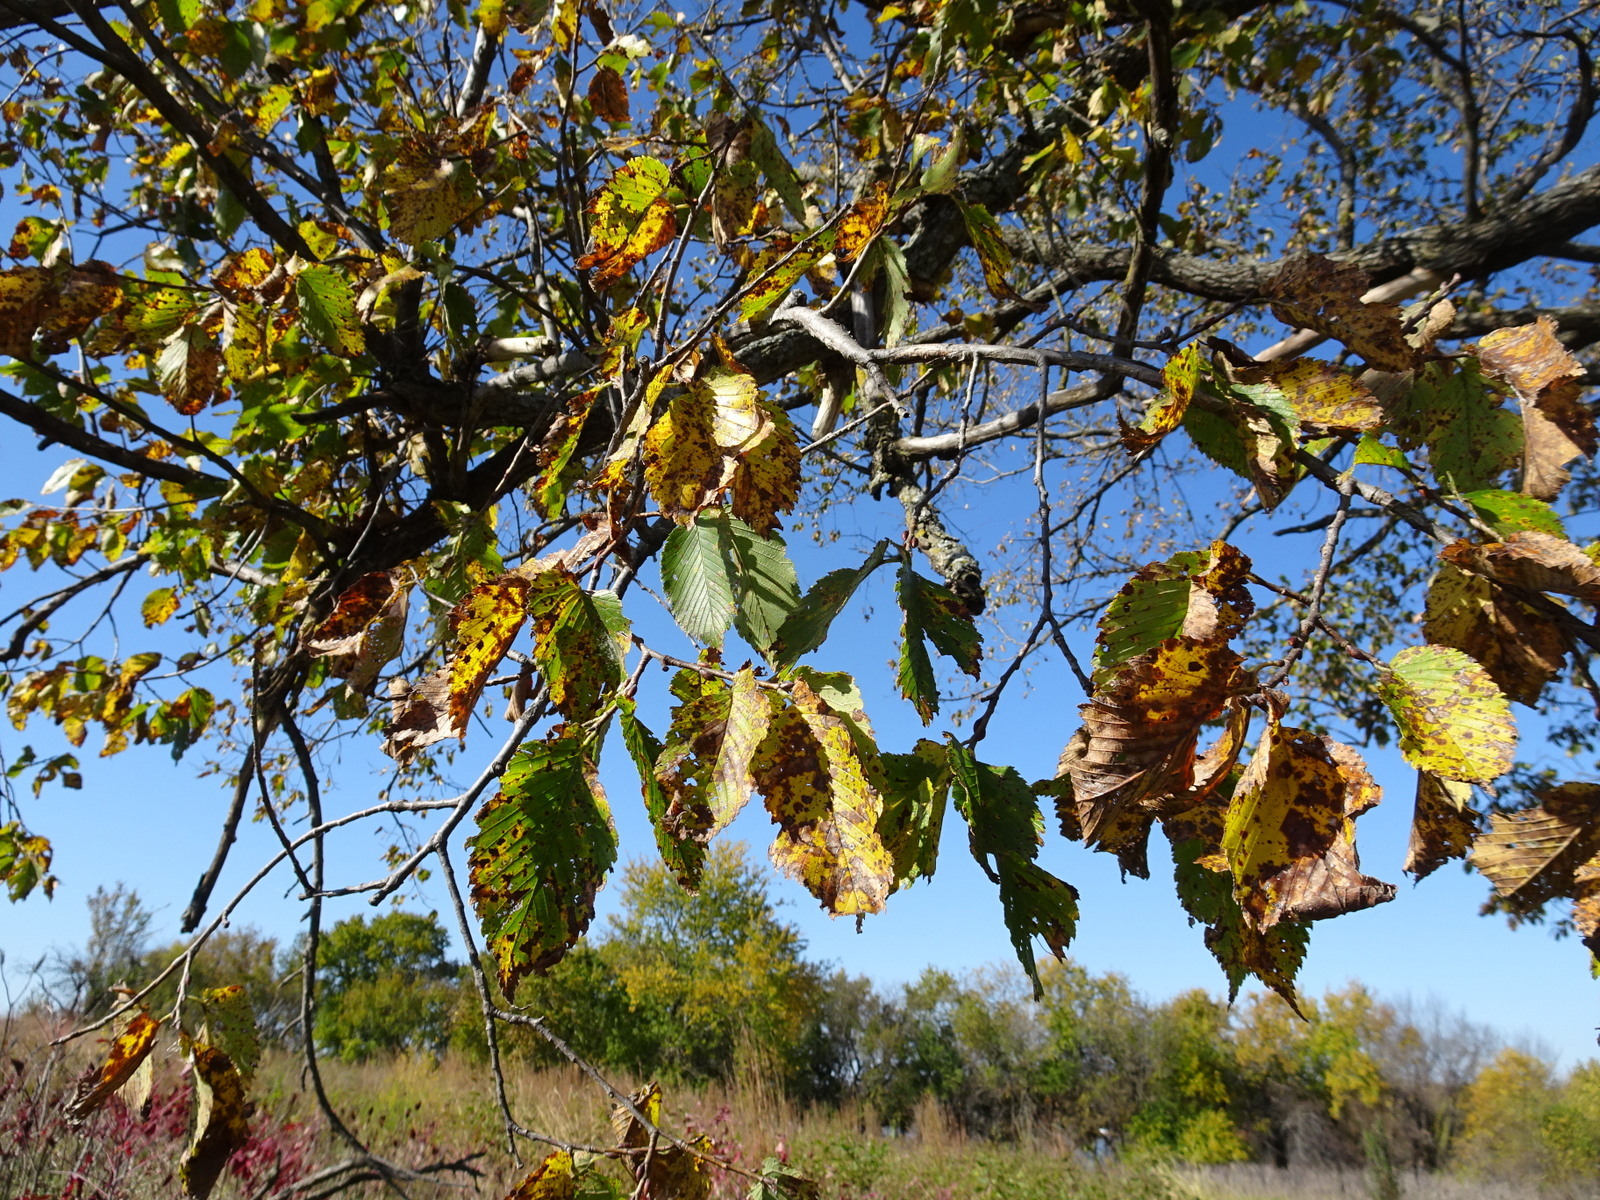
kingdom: Plantae
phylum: Tracheophyta
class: Magnoliopsida
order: Rosales
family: Ulmaceae
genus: Ulmus
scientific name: Ulmus americana
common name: American elm
